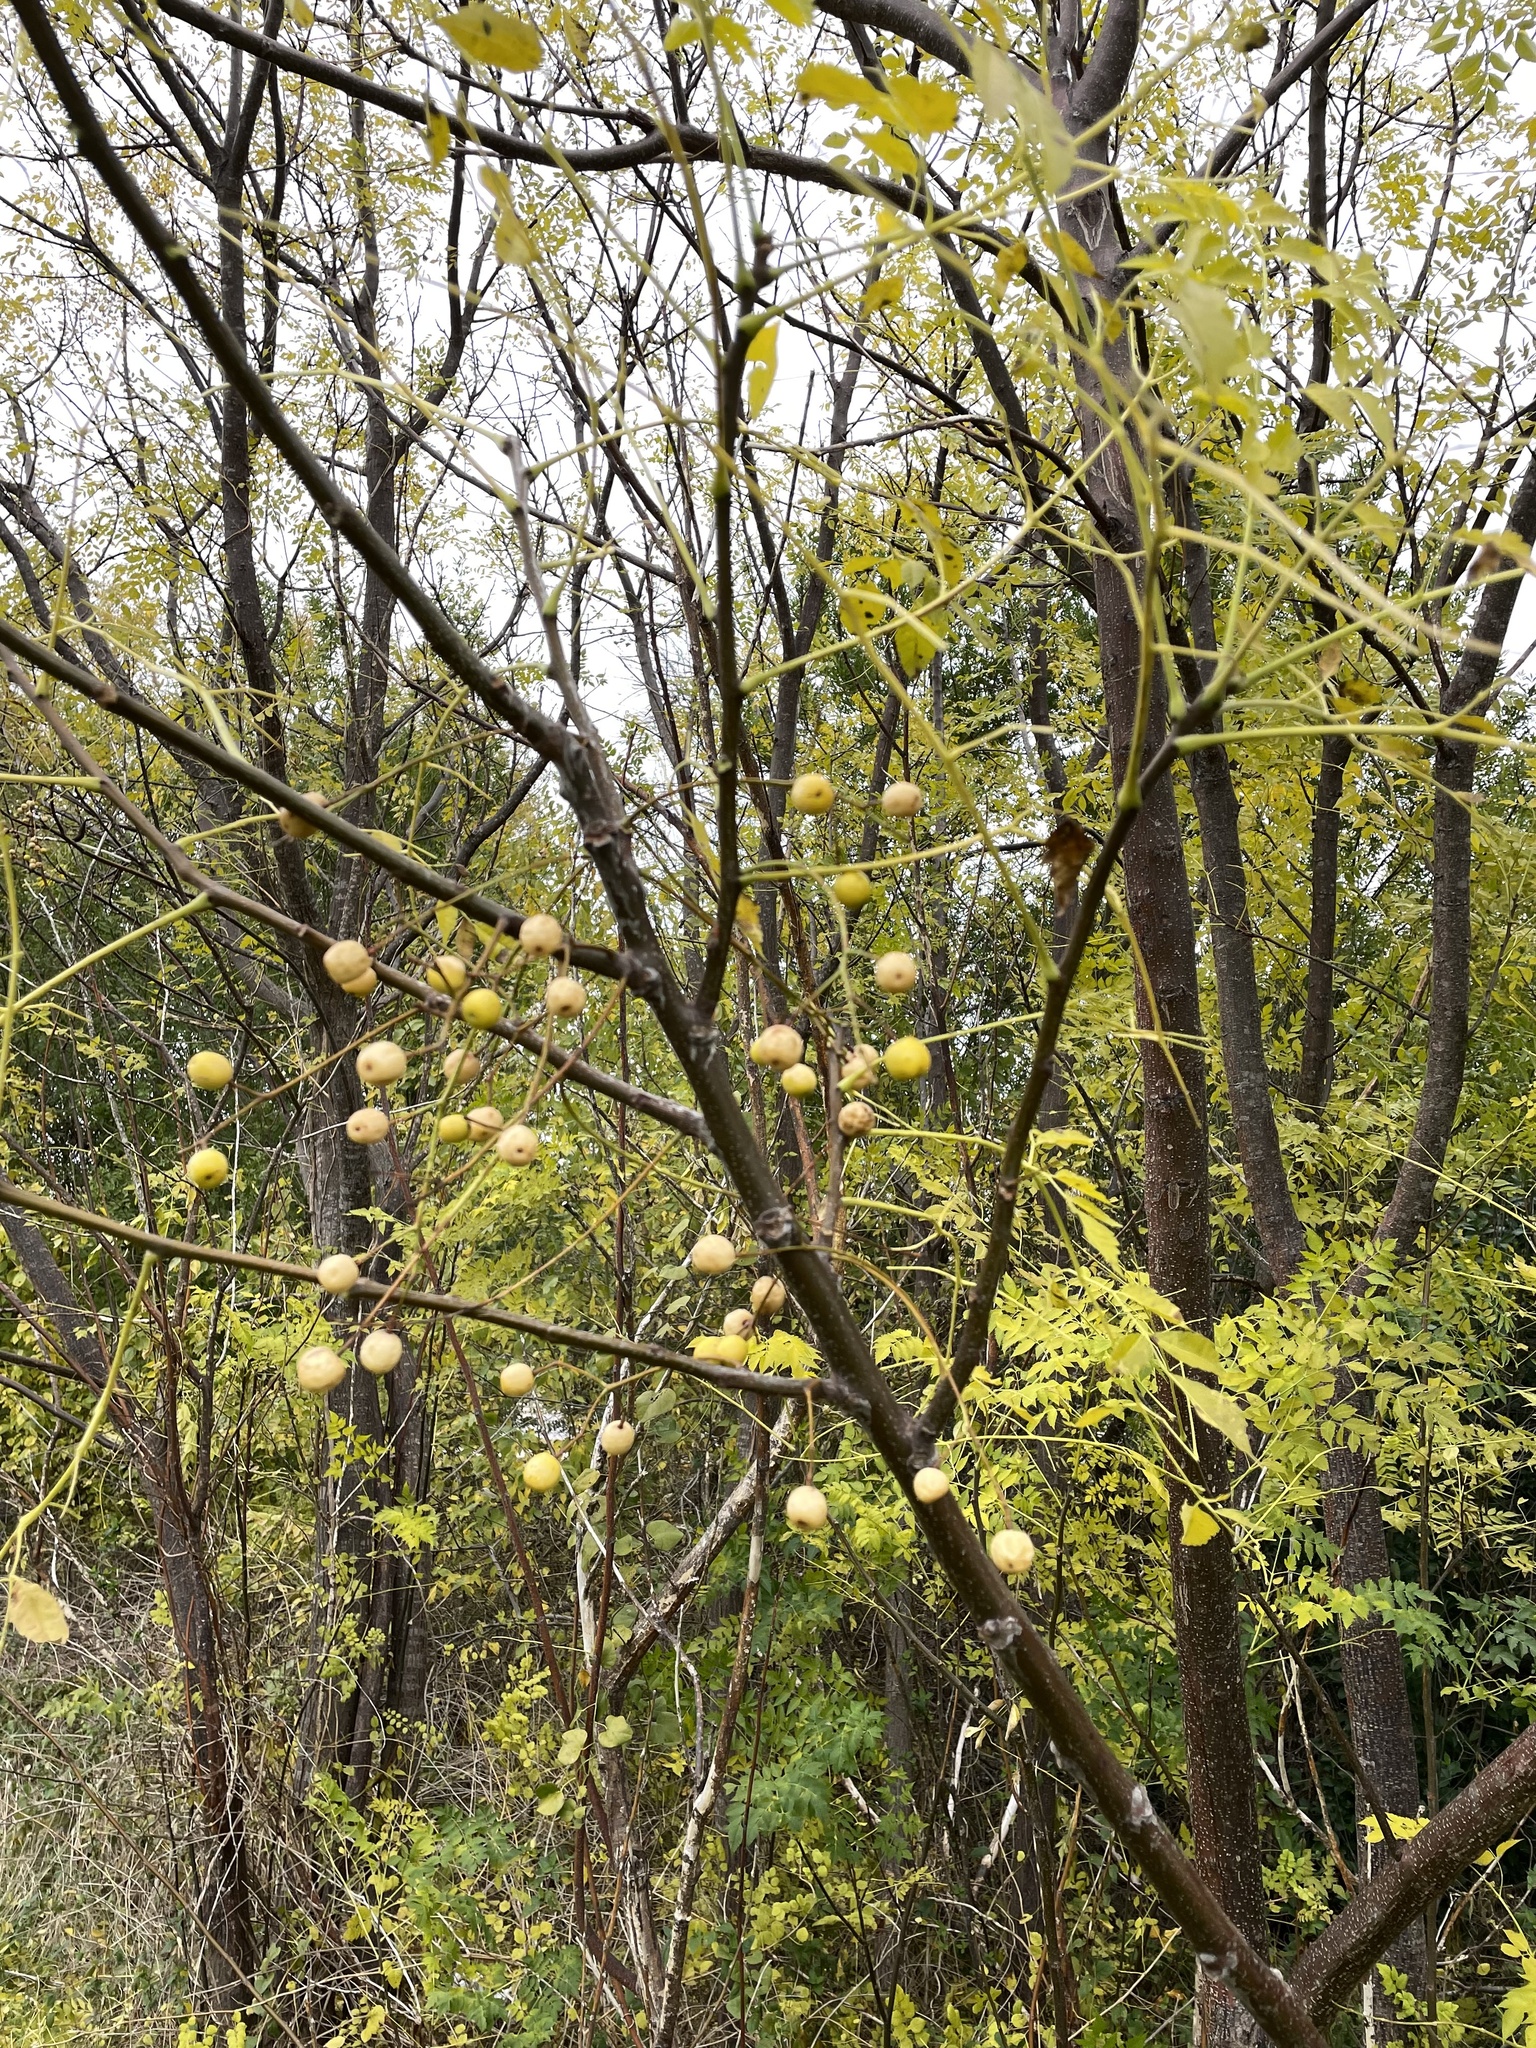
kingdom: Plantae
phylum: Tracheophyta
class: Magnoliopsida
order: Sapindales
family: Meliaceae
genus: Melia
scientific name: Melia azedarach
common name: Chinaberrytree
